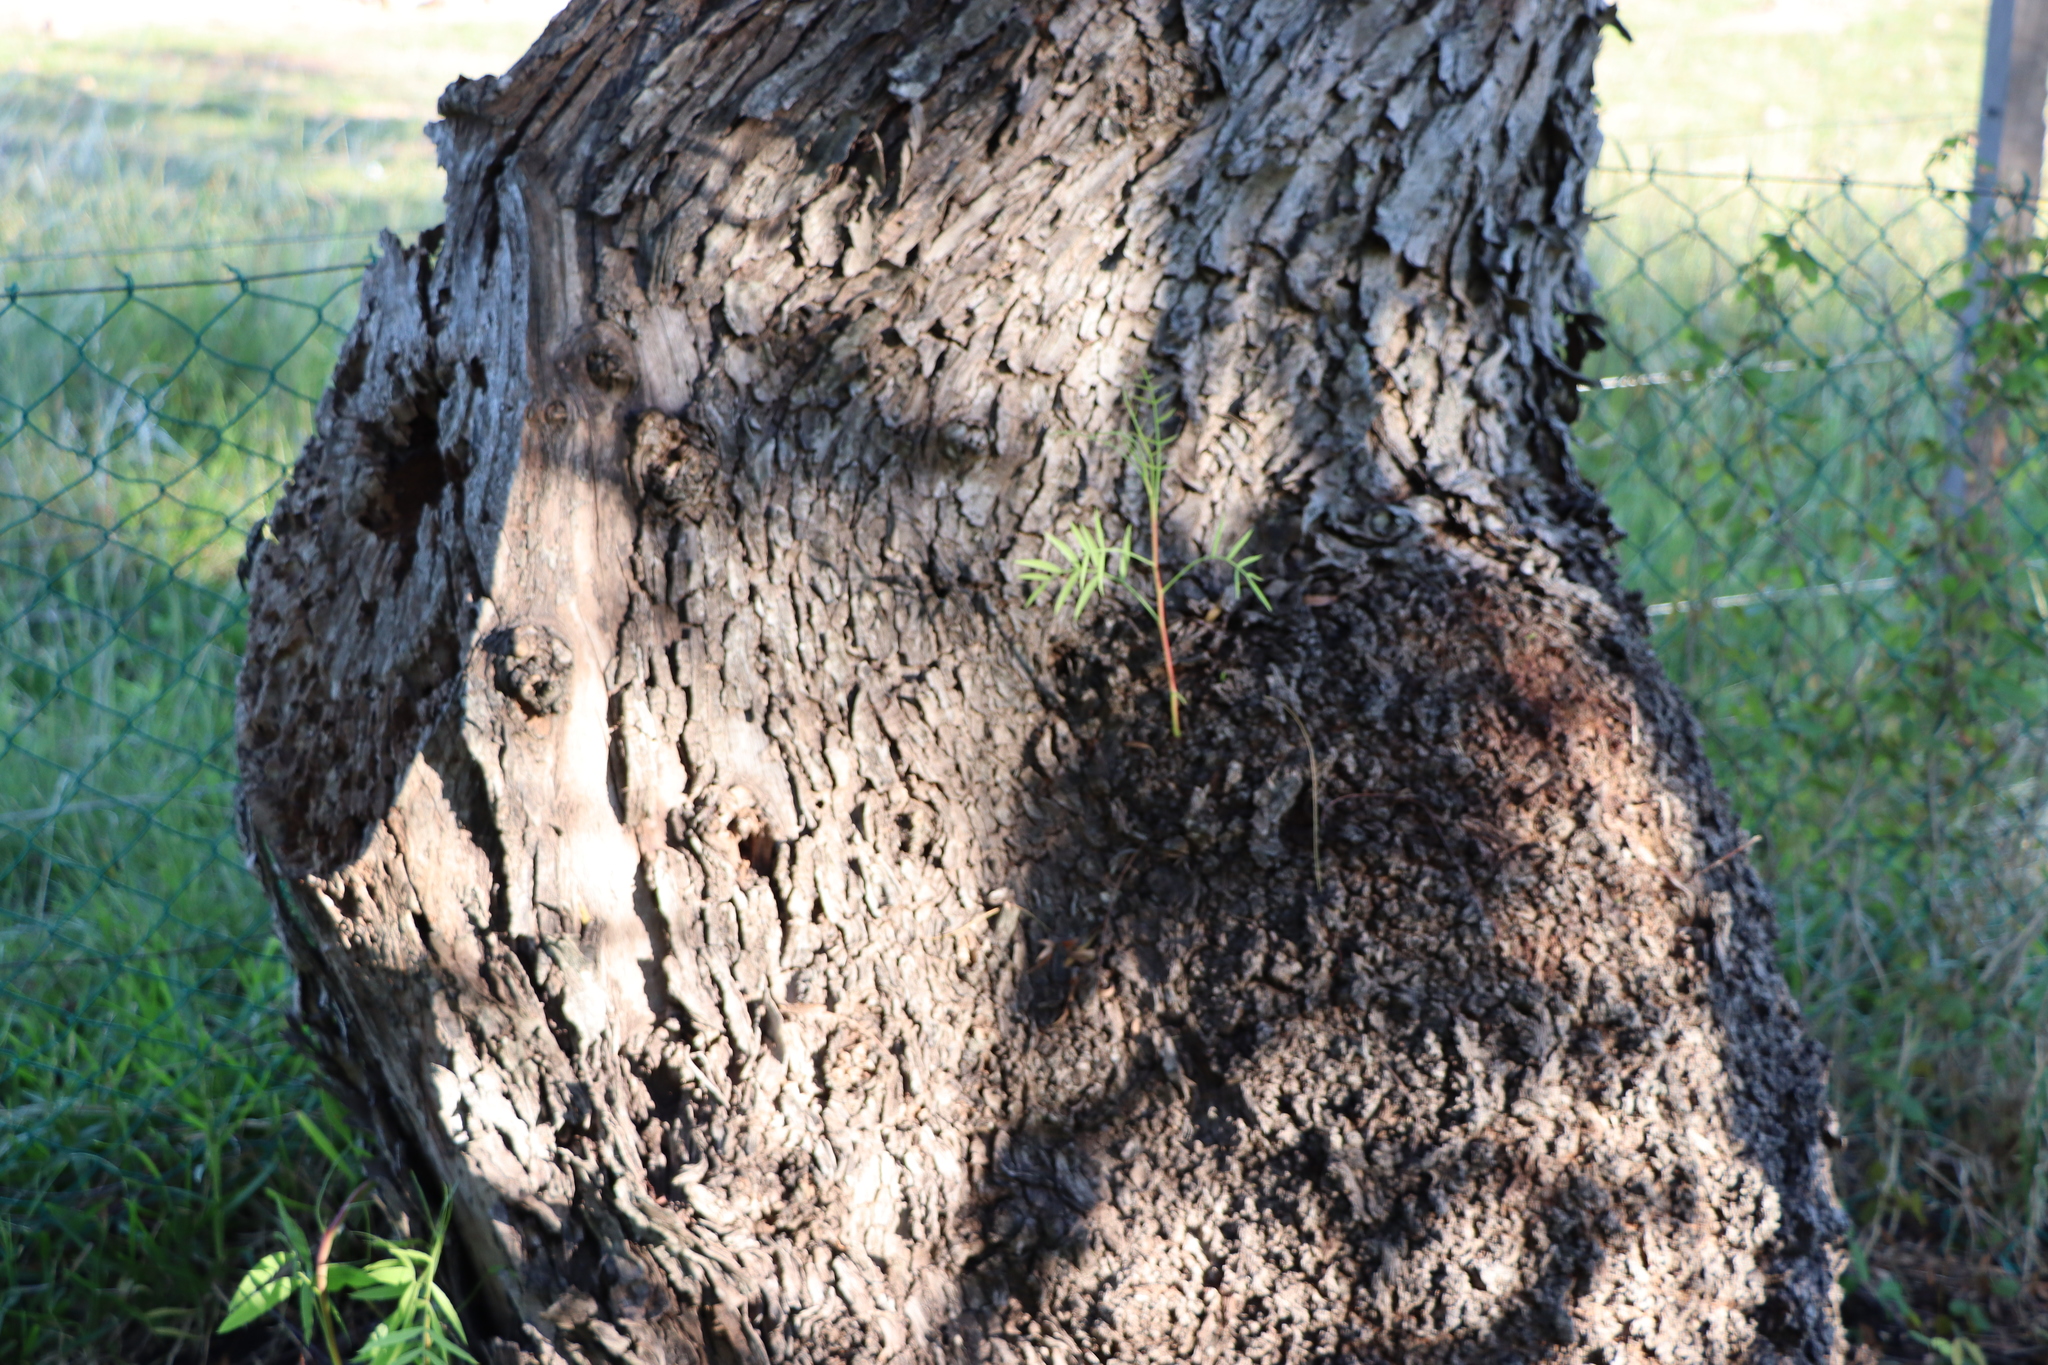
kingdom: Plantae
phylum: Tracheophyta
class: Magnoliopsida
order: Sapindales
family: Anacardiaceae
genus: Schinus
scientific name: Schinus molle
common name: Peruvian peppertree
